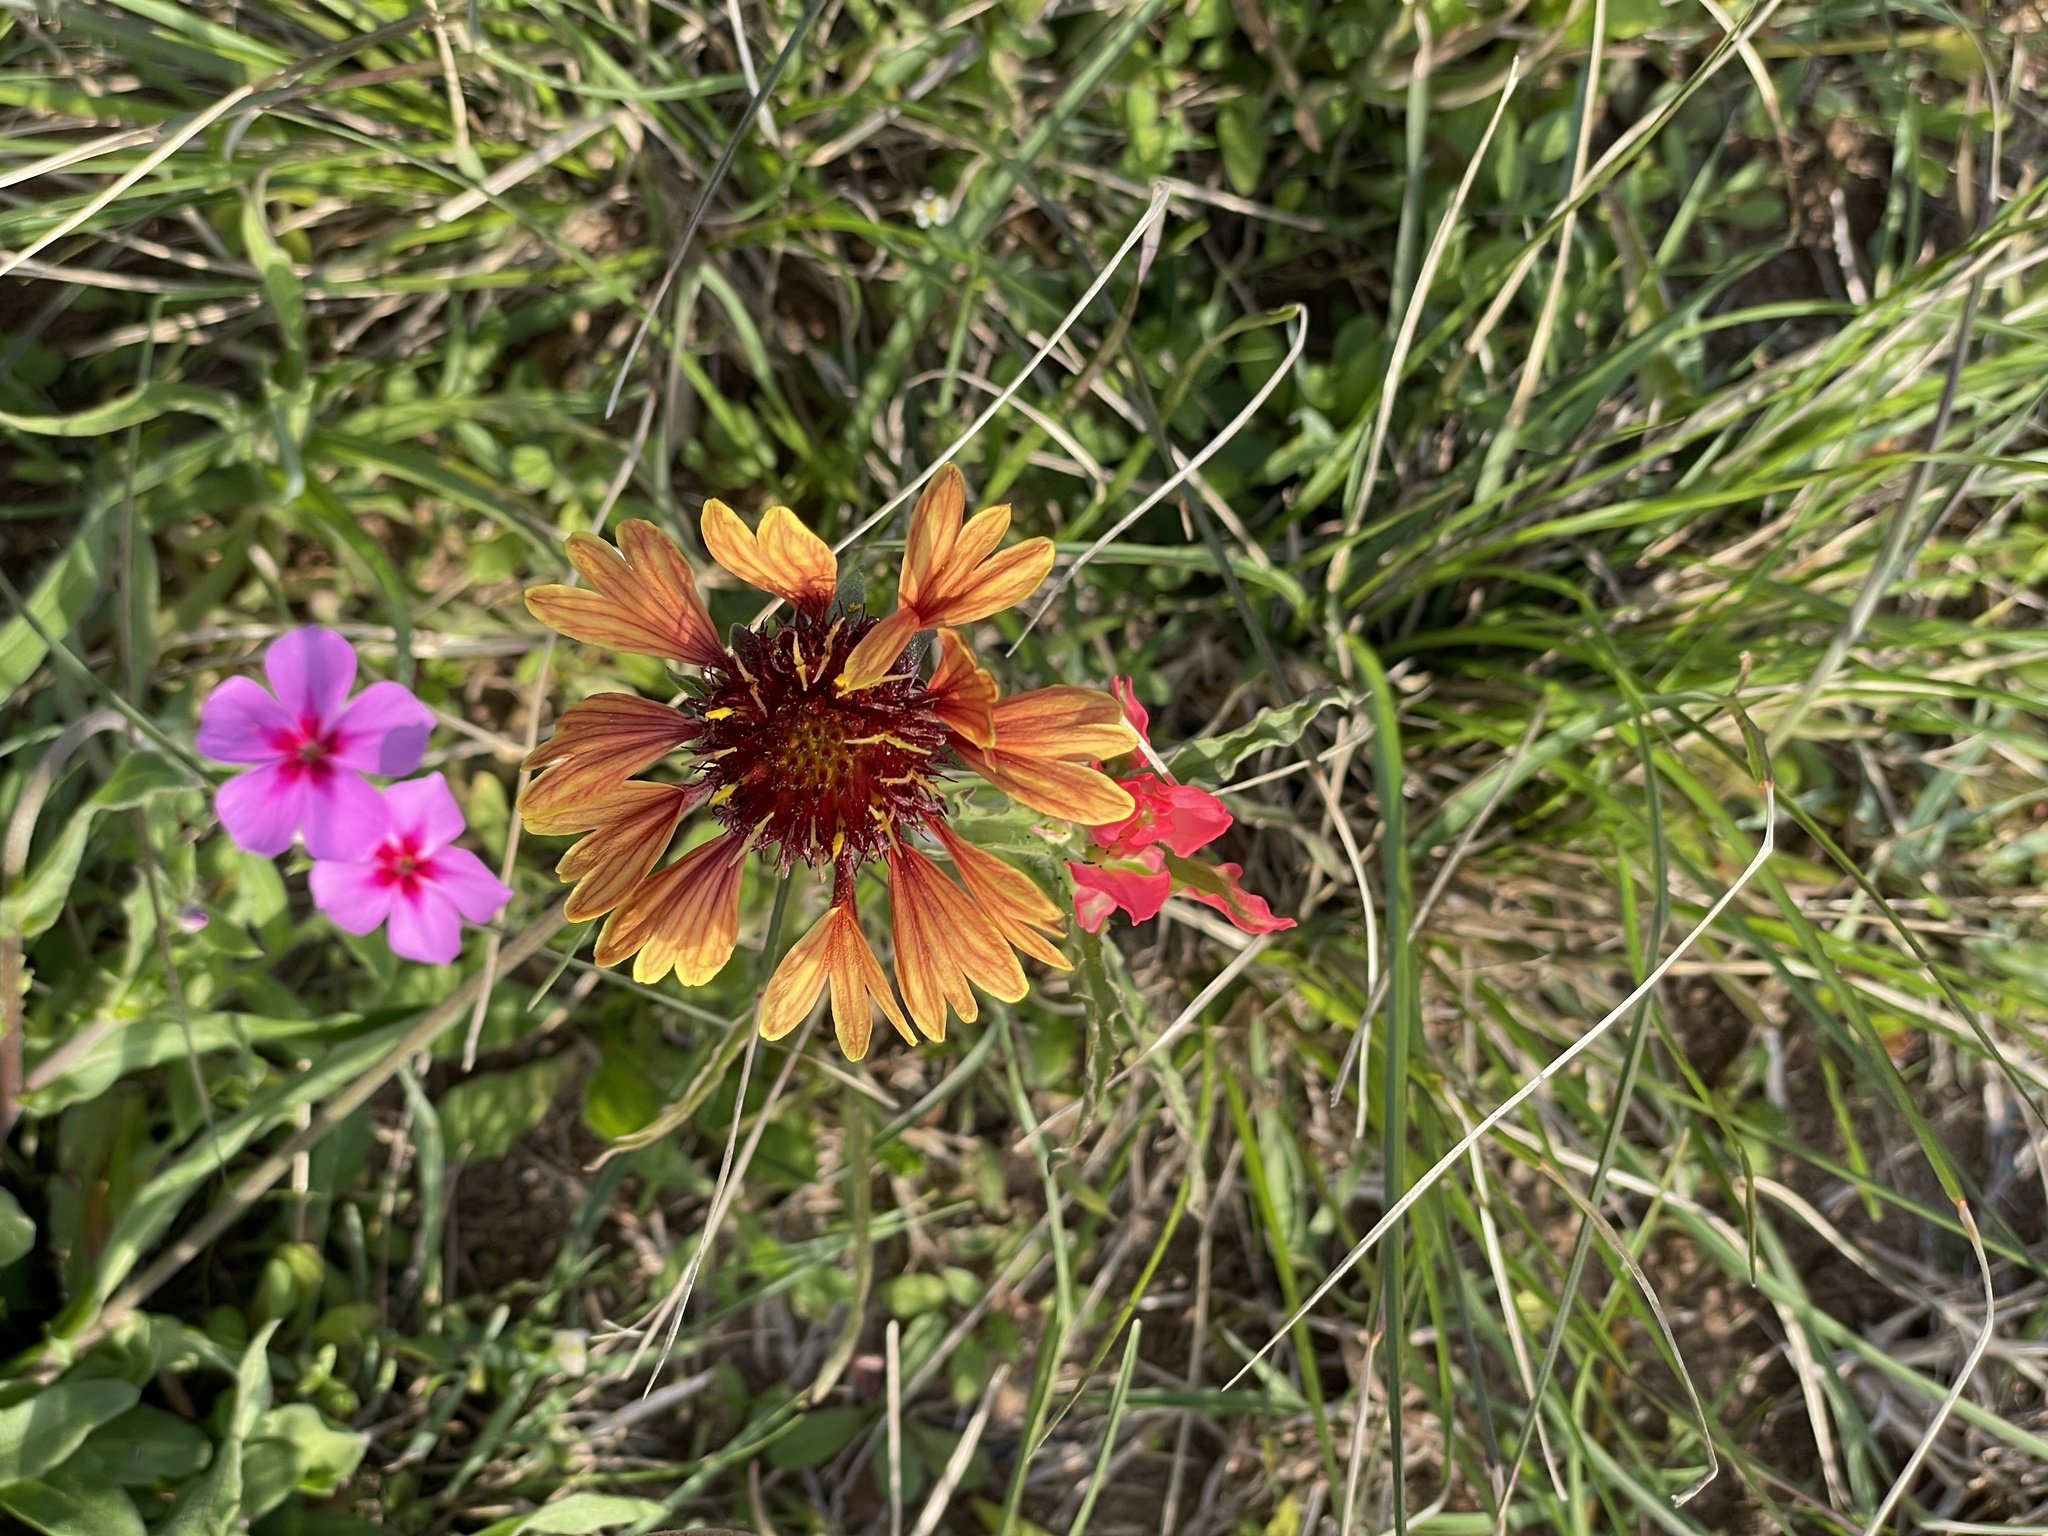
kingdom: Plantae
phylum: Tracheophyta
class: Magnoliopsida
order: Asterales
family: Asteraceae
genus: Gaillardia
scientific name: Gaillardia aestivalis
